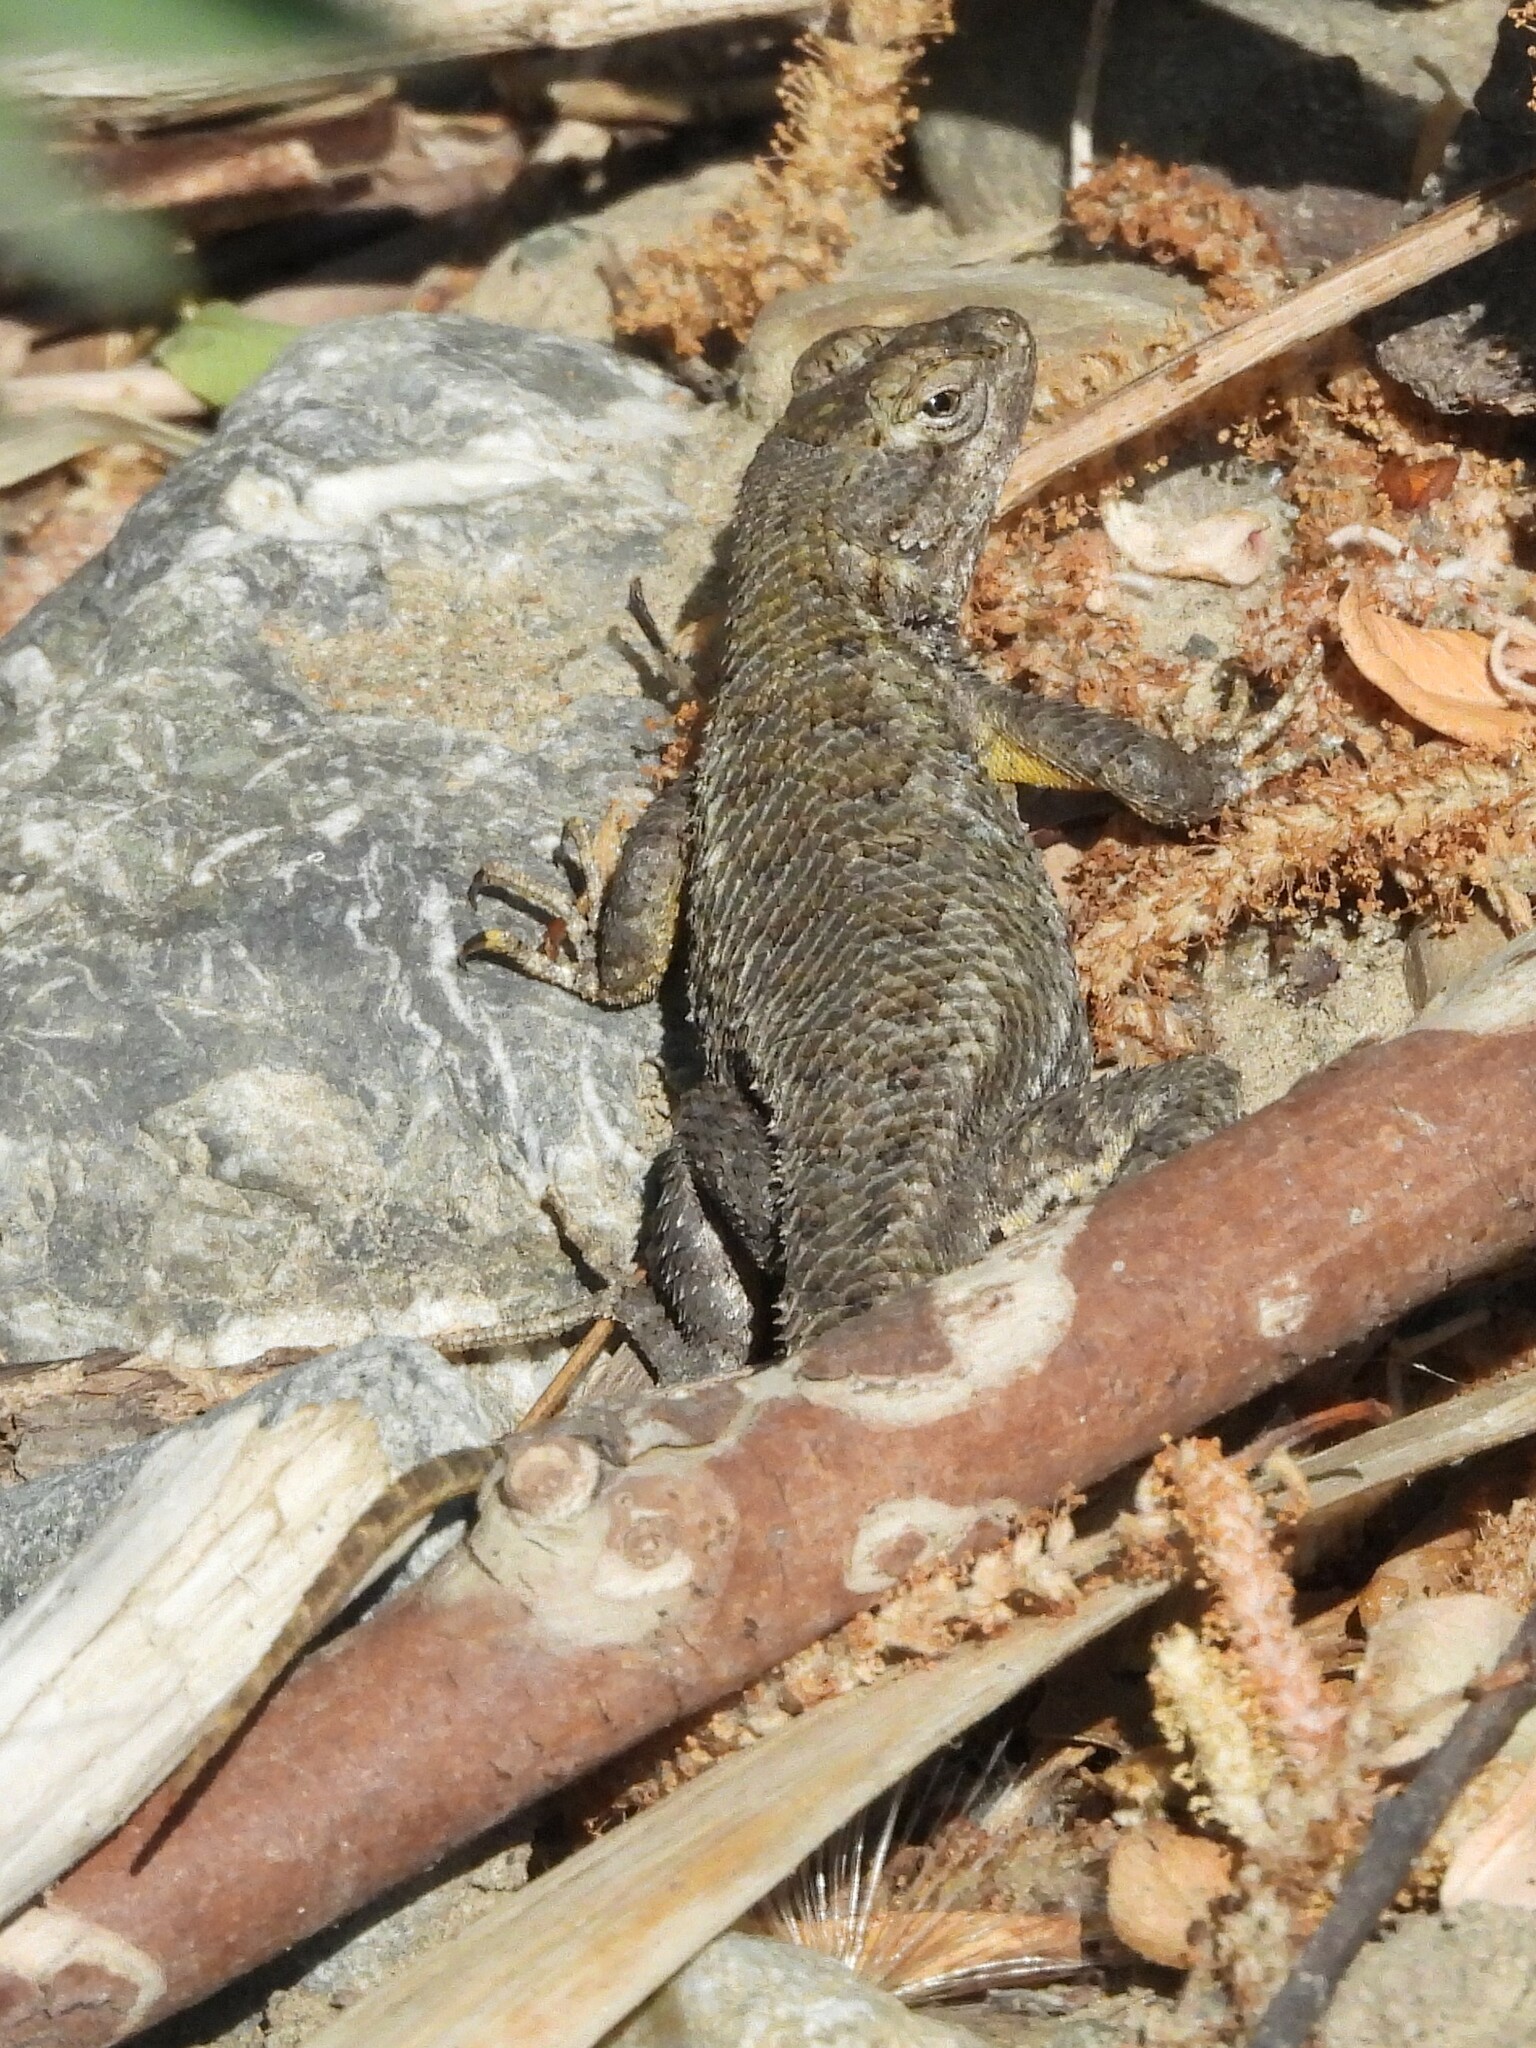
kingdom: Animalia
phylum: Chordata
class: Squamata
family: Phrynosomatidae
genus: Sceloporus
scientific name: Sceloporus occidentalis
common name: Western fence lizard
